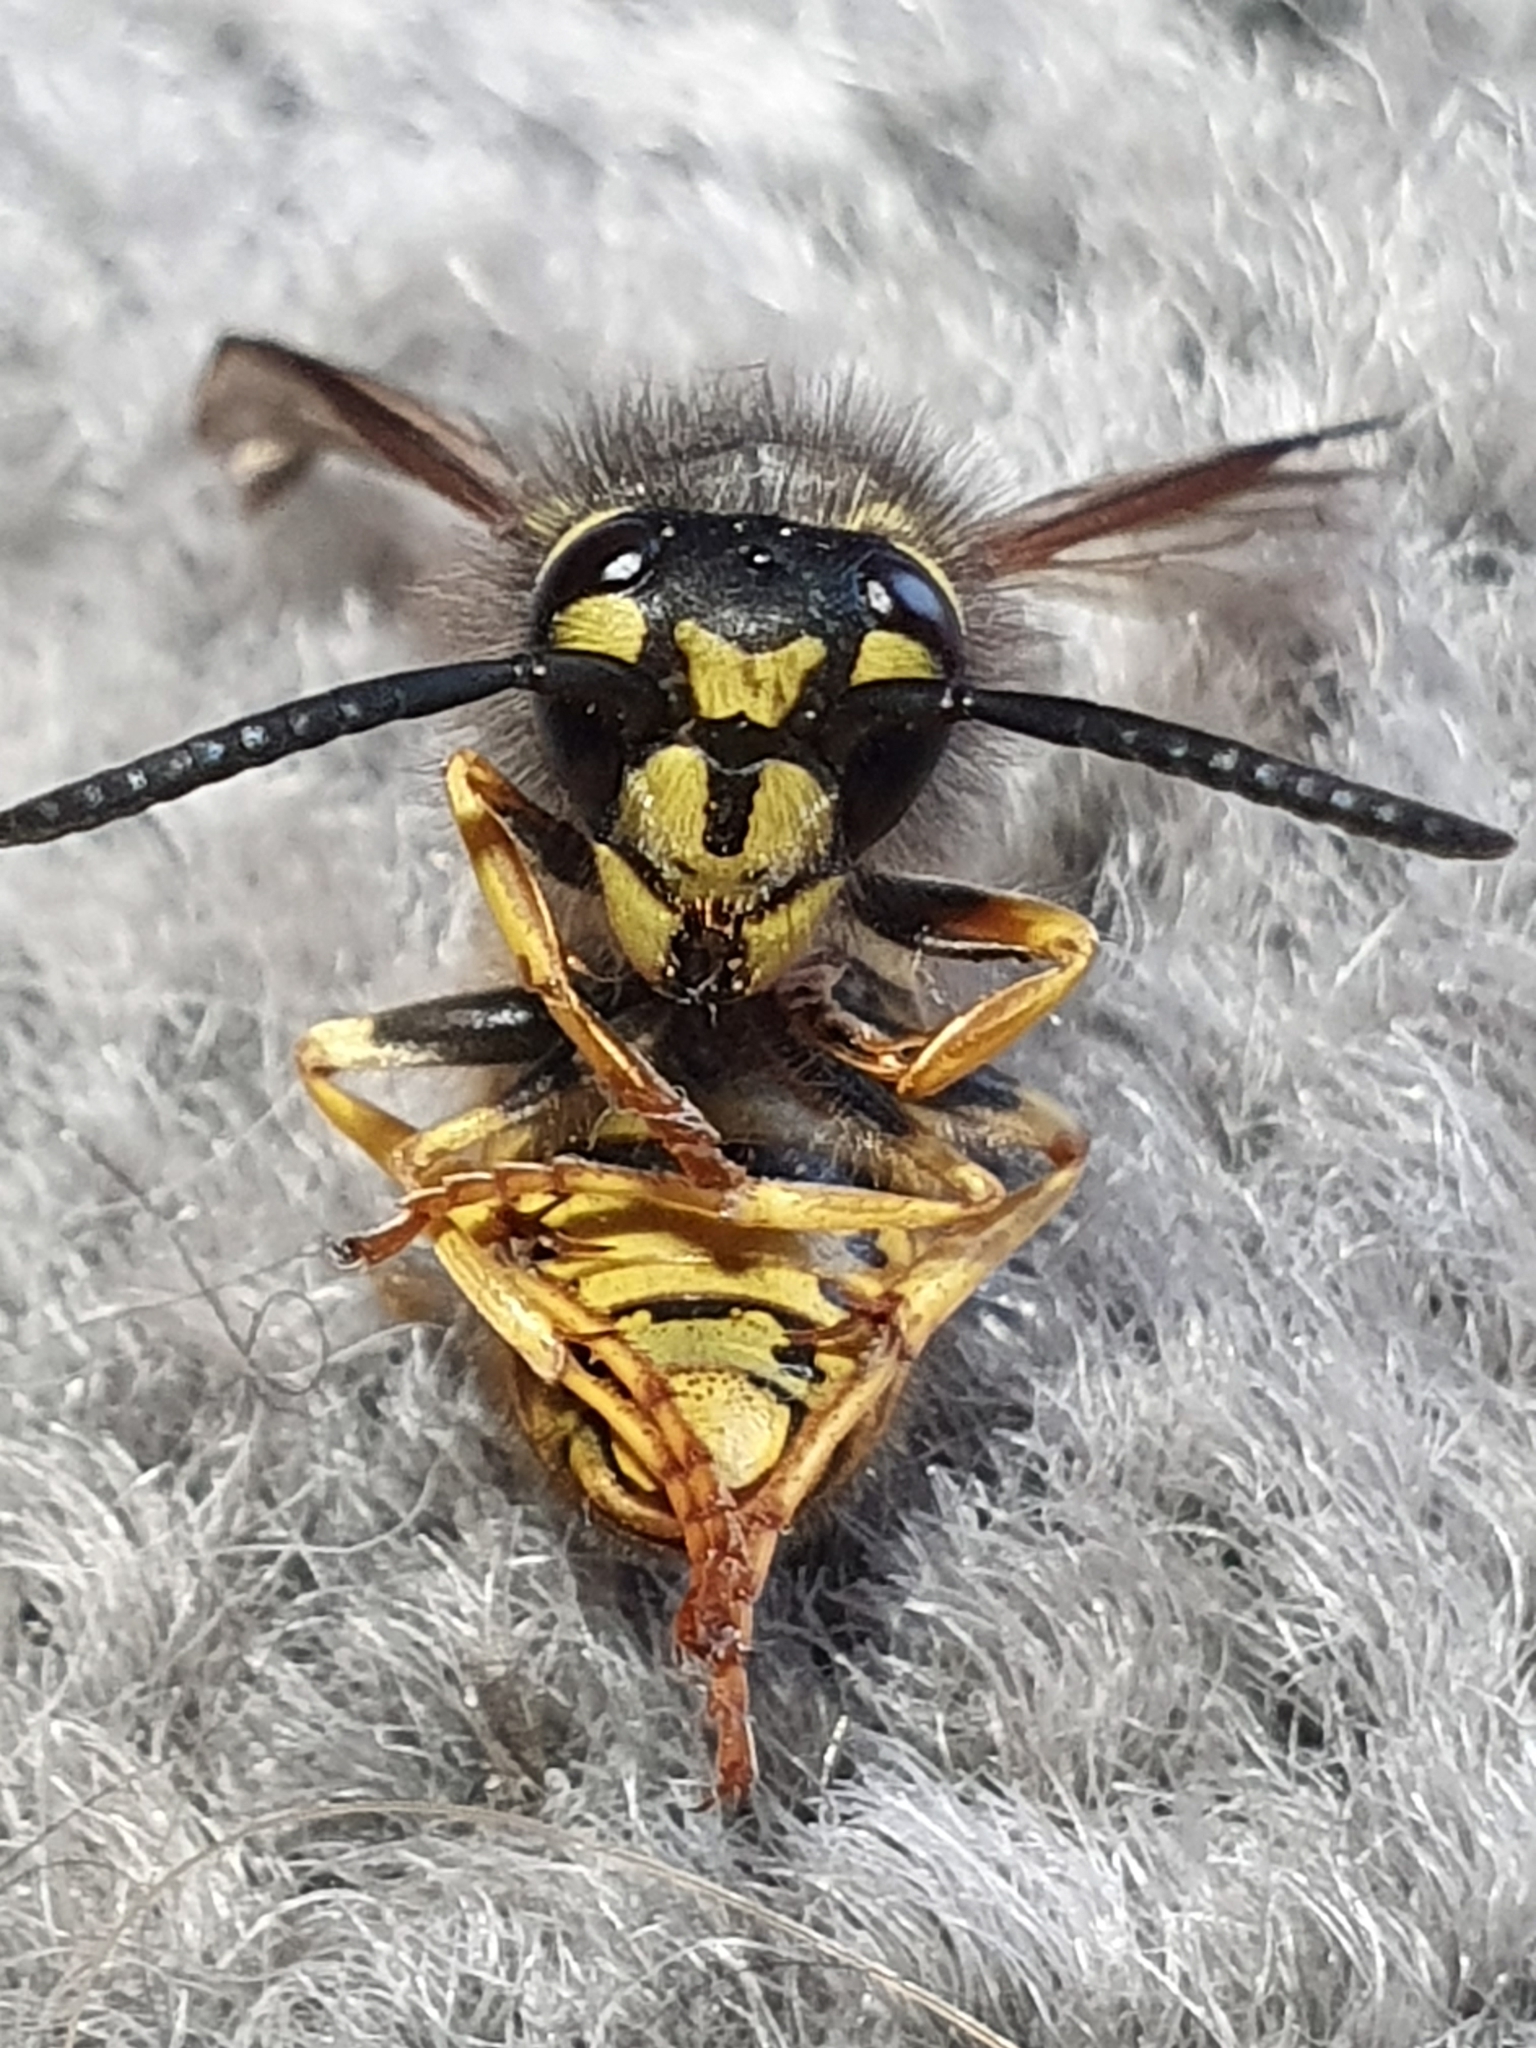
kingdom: Animalia
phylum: Arthropoda
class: Insecta
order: Hymenoptera
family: Vespidae
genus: Vespula
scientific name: Vespula germanica
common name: German wasp
